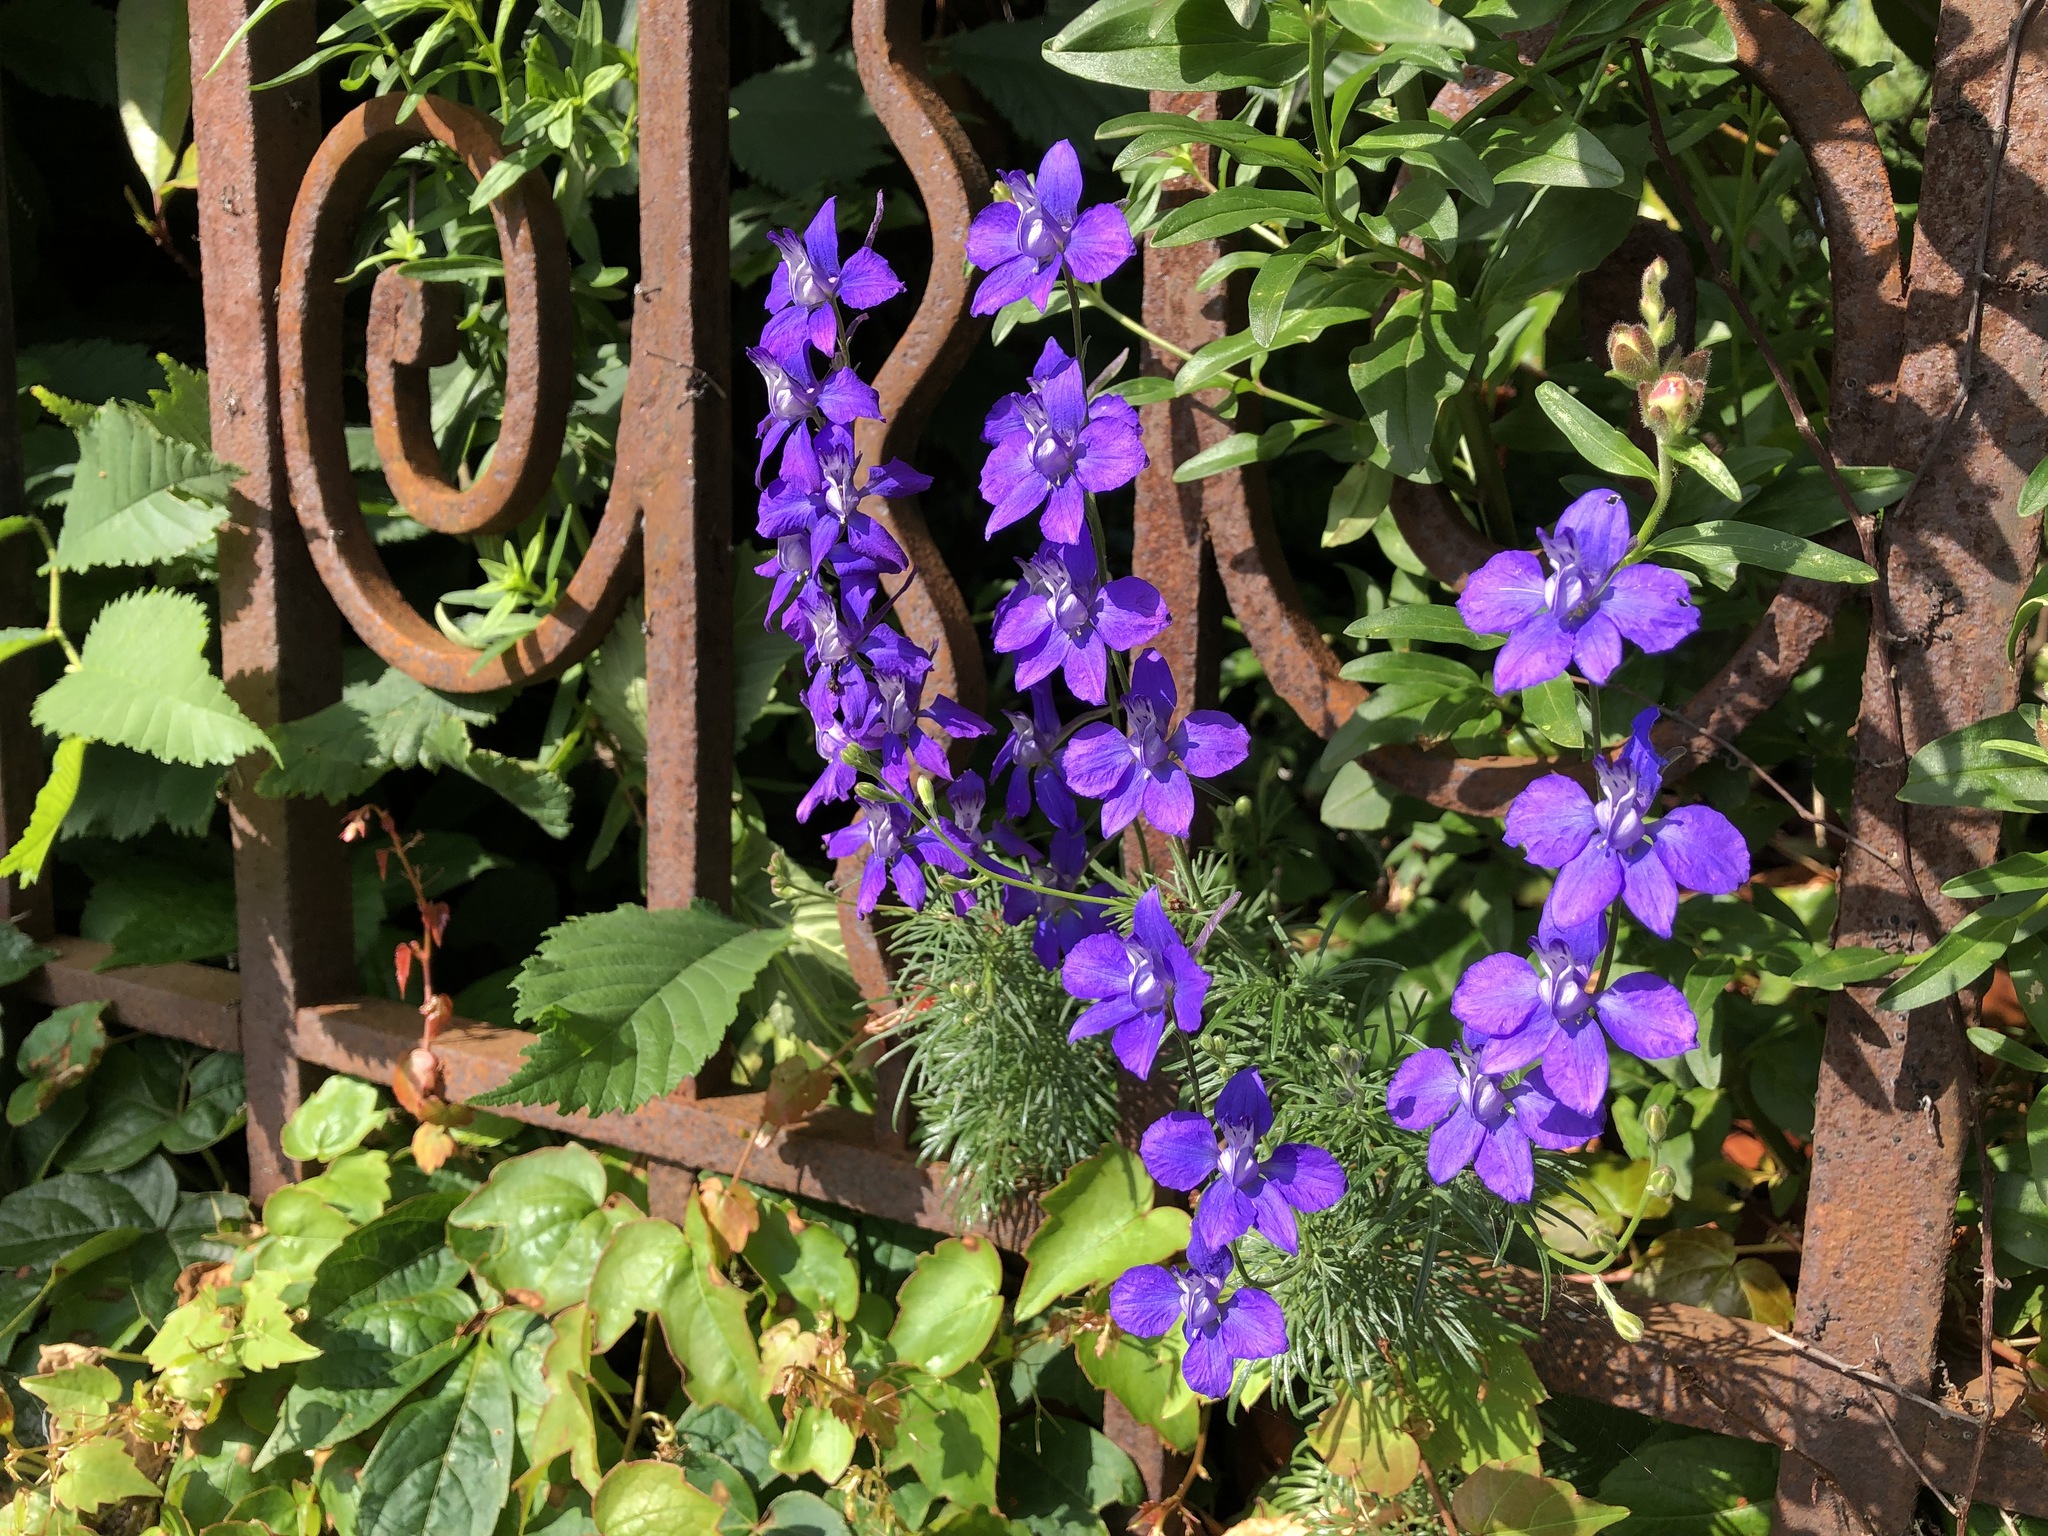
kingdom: Plantae
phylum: Tracheophyta
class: Magnoliopsida
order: Ranunculales
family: Ranunculaceae
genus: Delphinium
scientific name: Delphinium ajacis
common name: Doubtful knight's-spur
